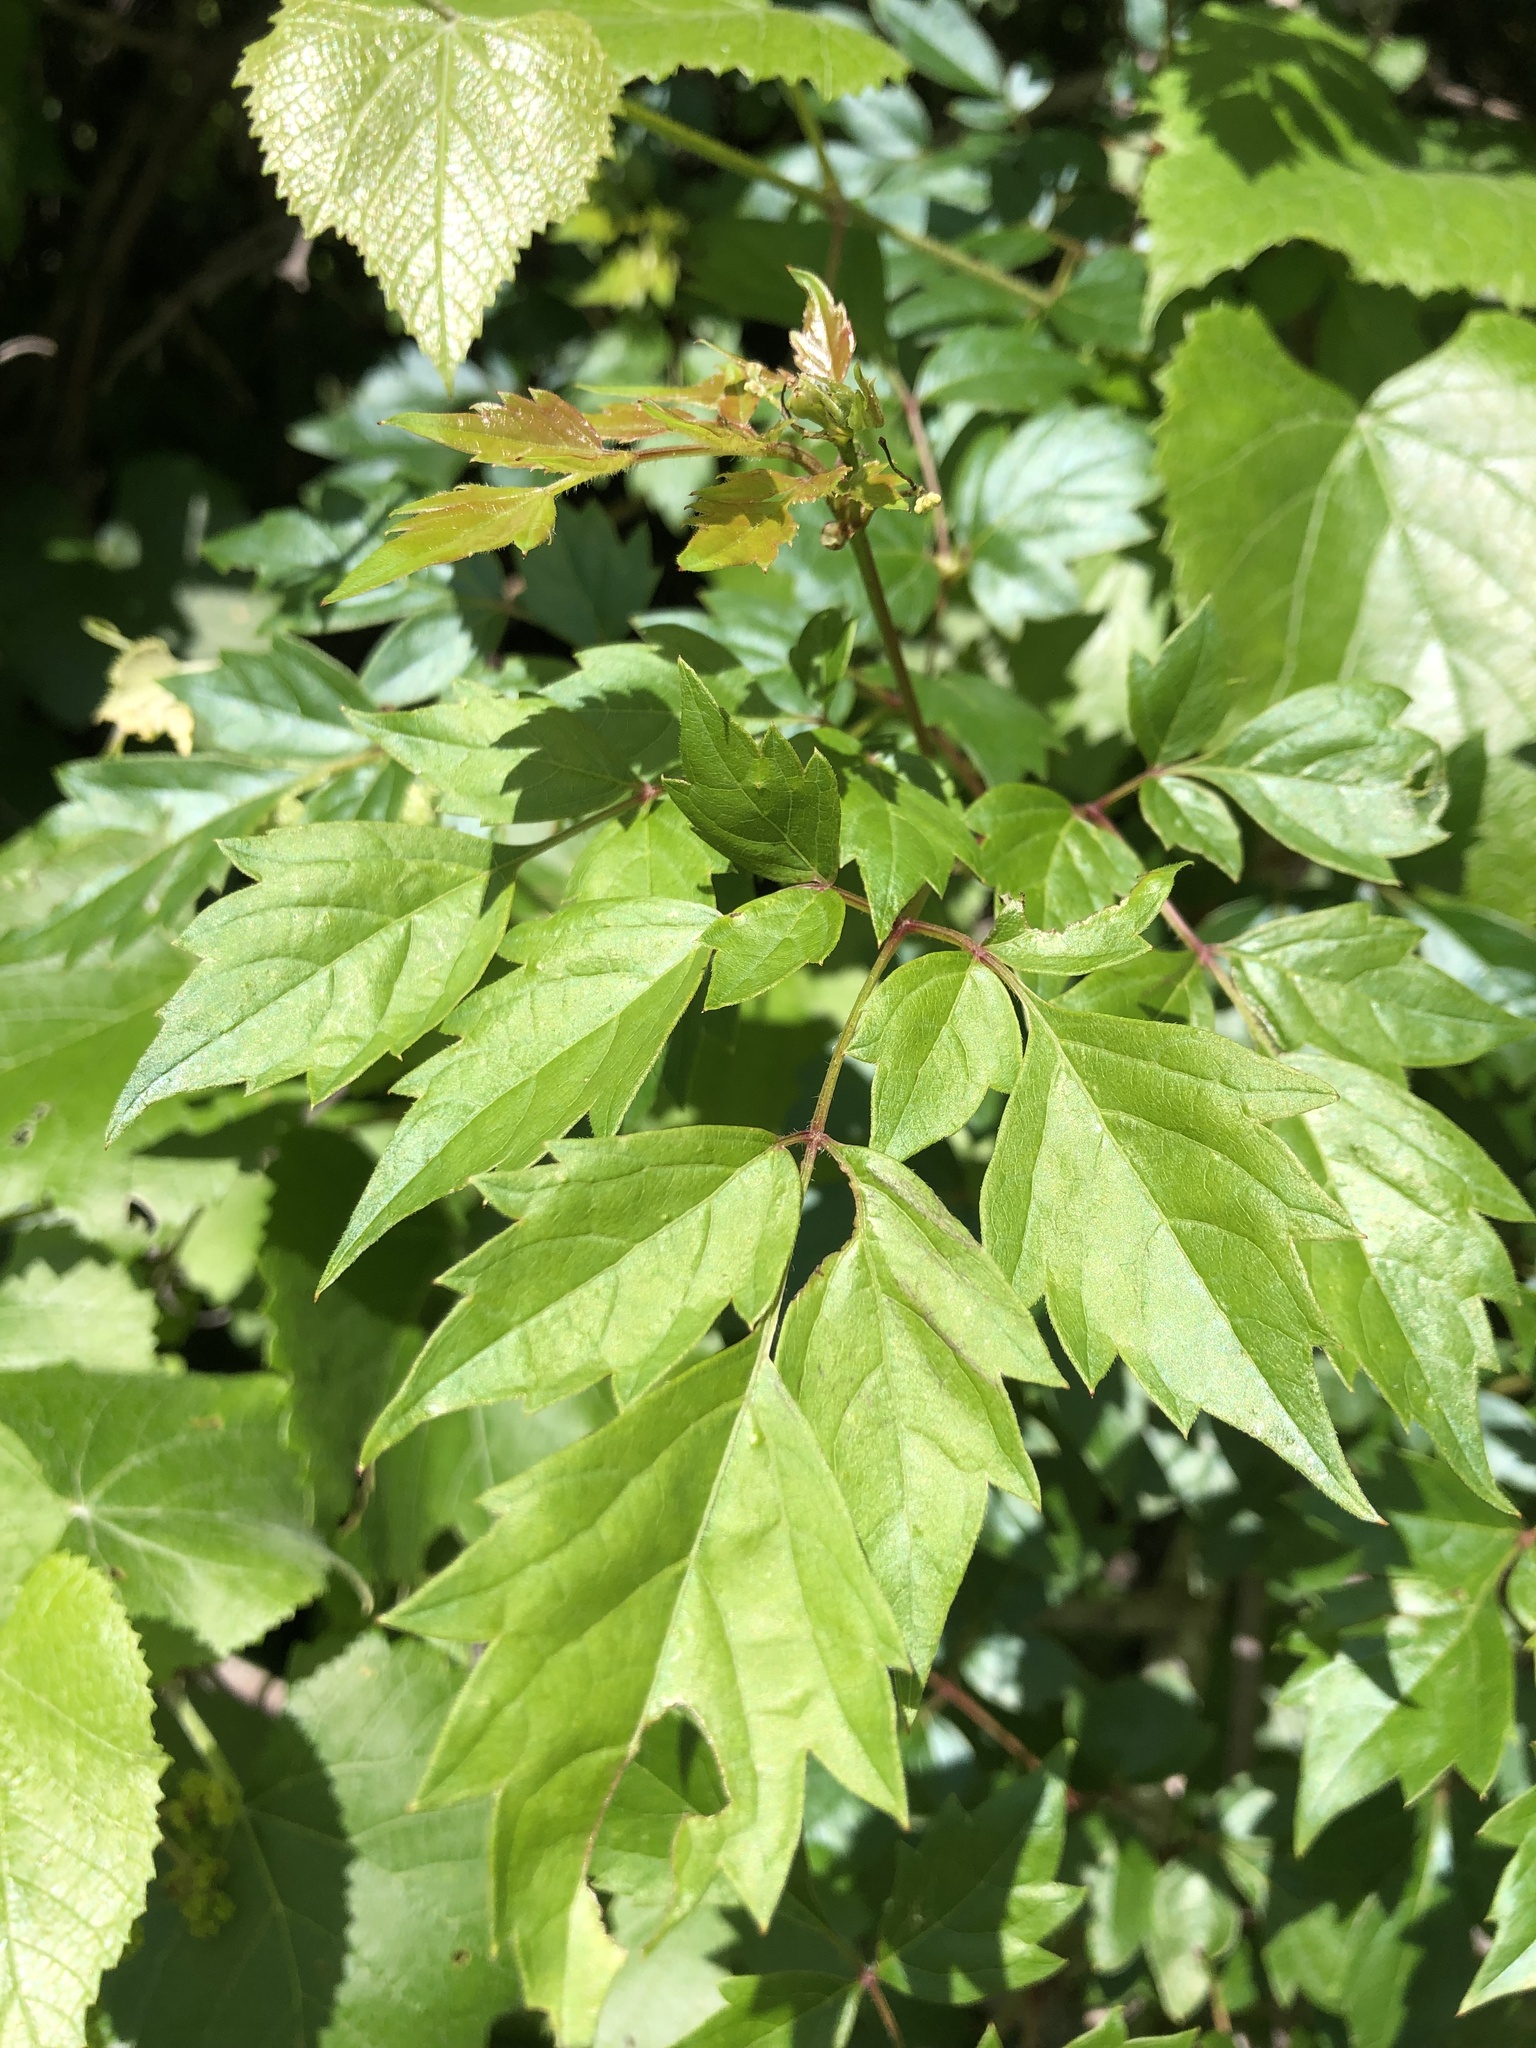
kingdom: Plantae
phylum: Tracheophyta
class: Magnoliopsida
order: Vitales
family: Vitaceae
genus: Nekemias
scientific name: Nekemias arborea
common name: Peppervine
